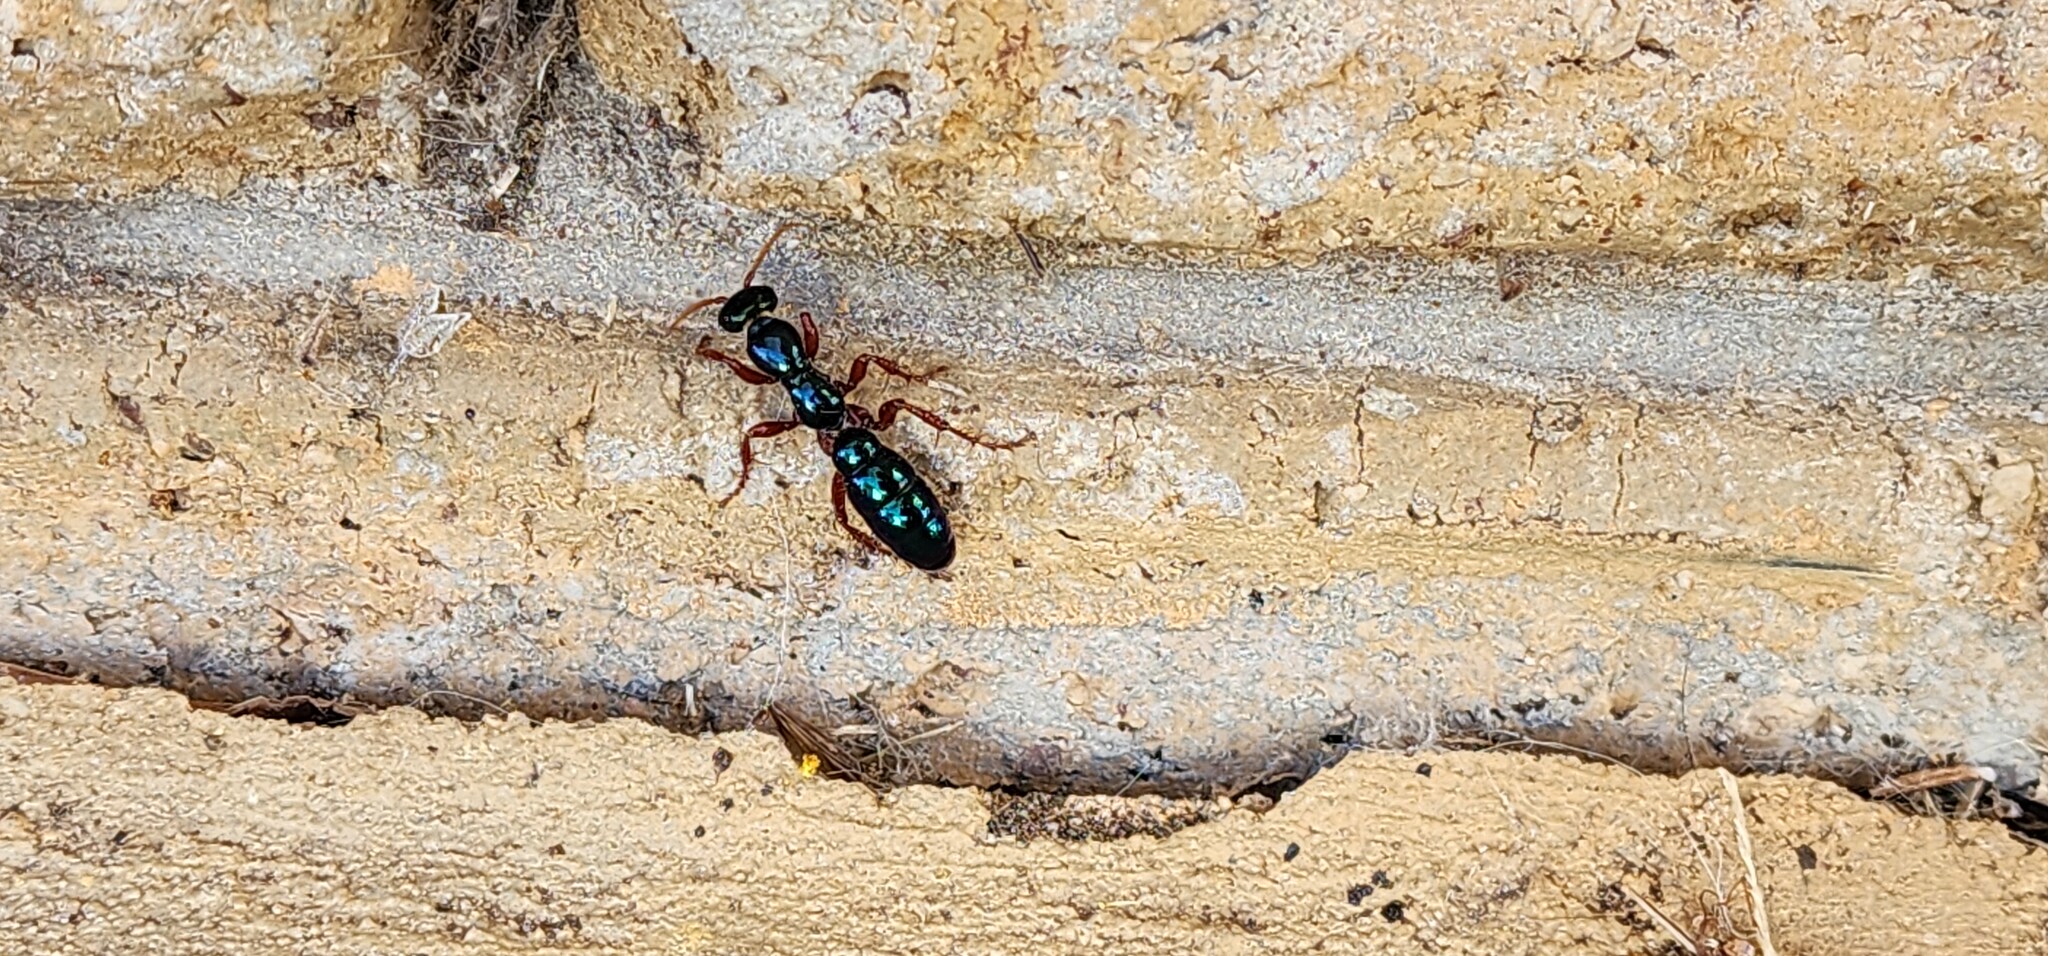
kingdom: Animalia
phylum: Arthropoda
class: Insecta
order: Hymenoptera
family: Tiphiidae
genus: Diamma
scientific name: Diamma
